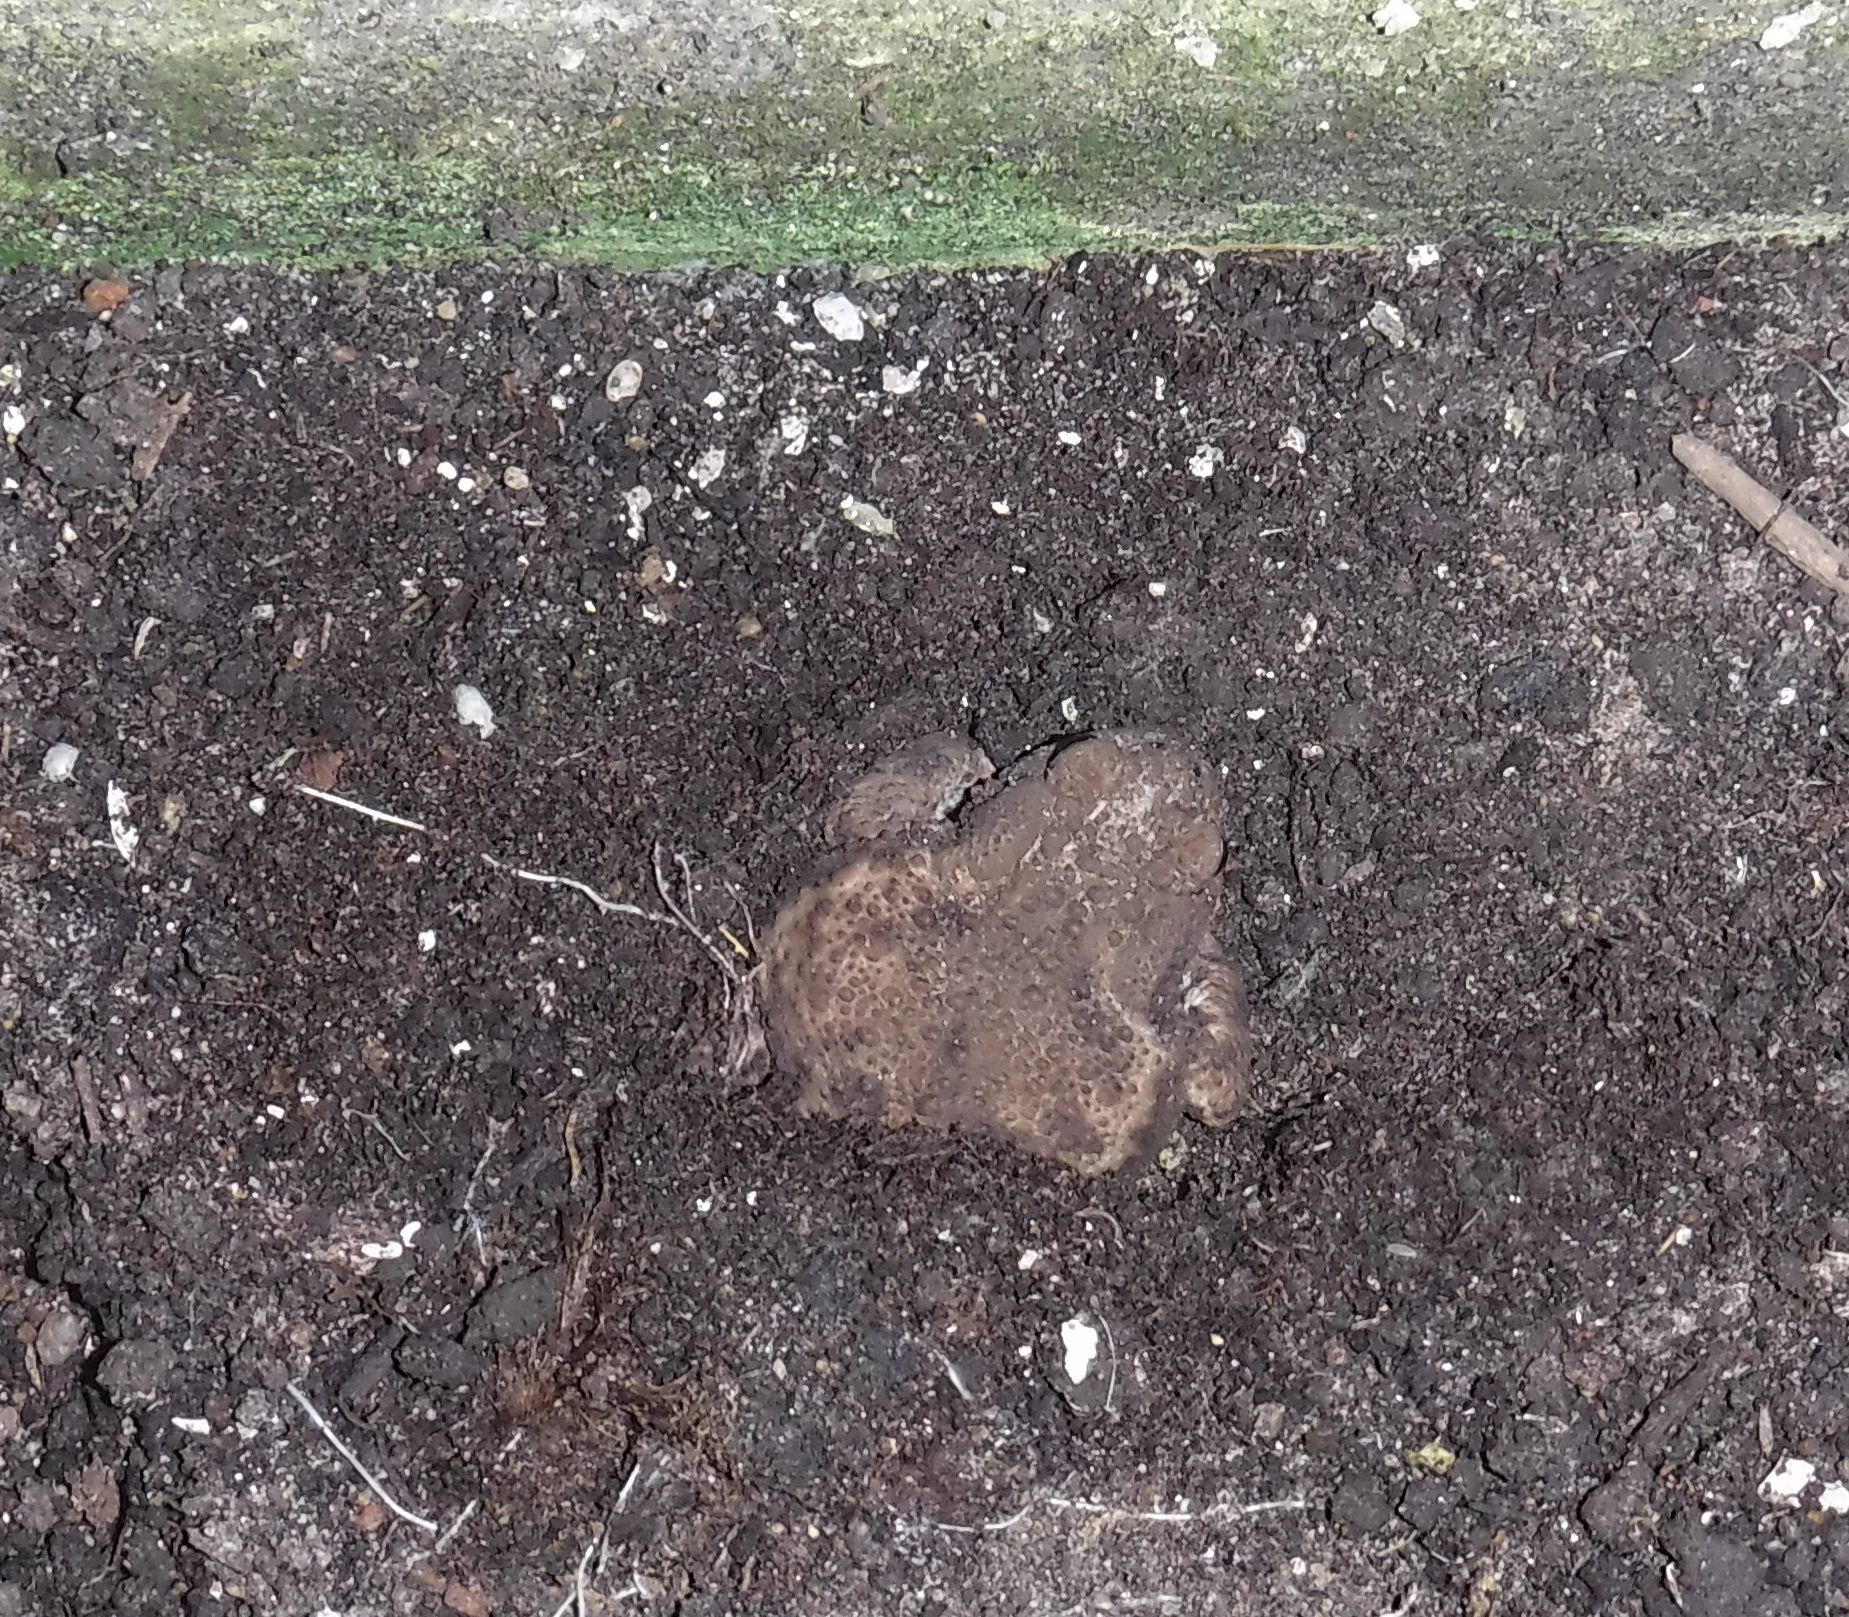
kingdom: Animalia
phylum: Chordata
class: Amphibia
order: Anura
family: Bufonidae
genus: Bufo
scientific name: Bufo bufo
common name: Common toad
